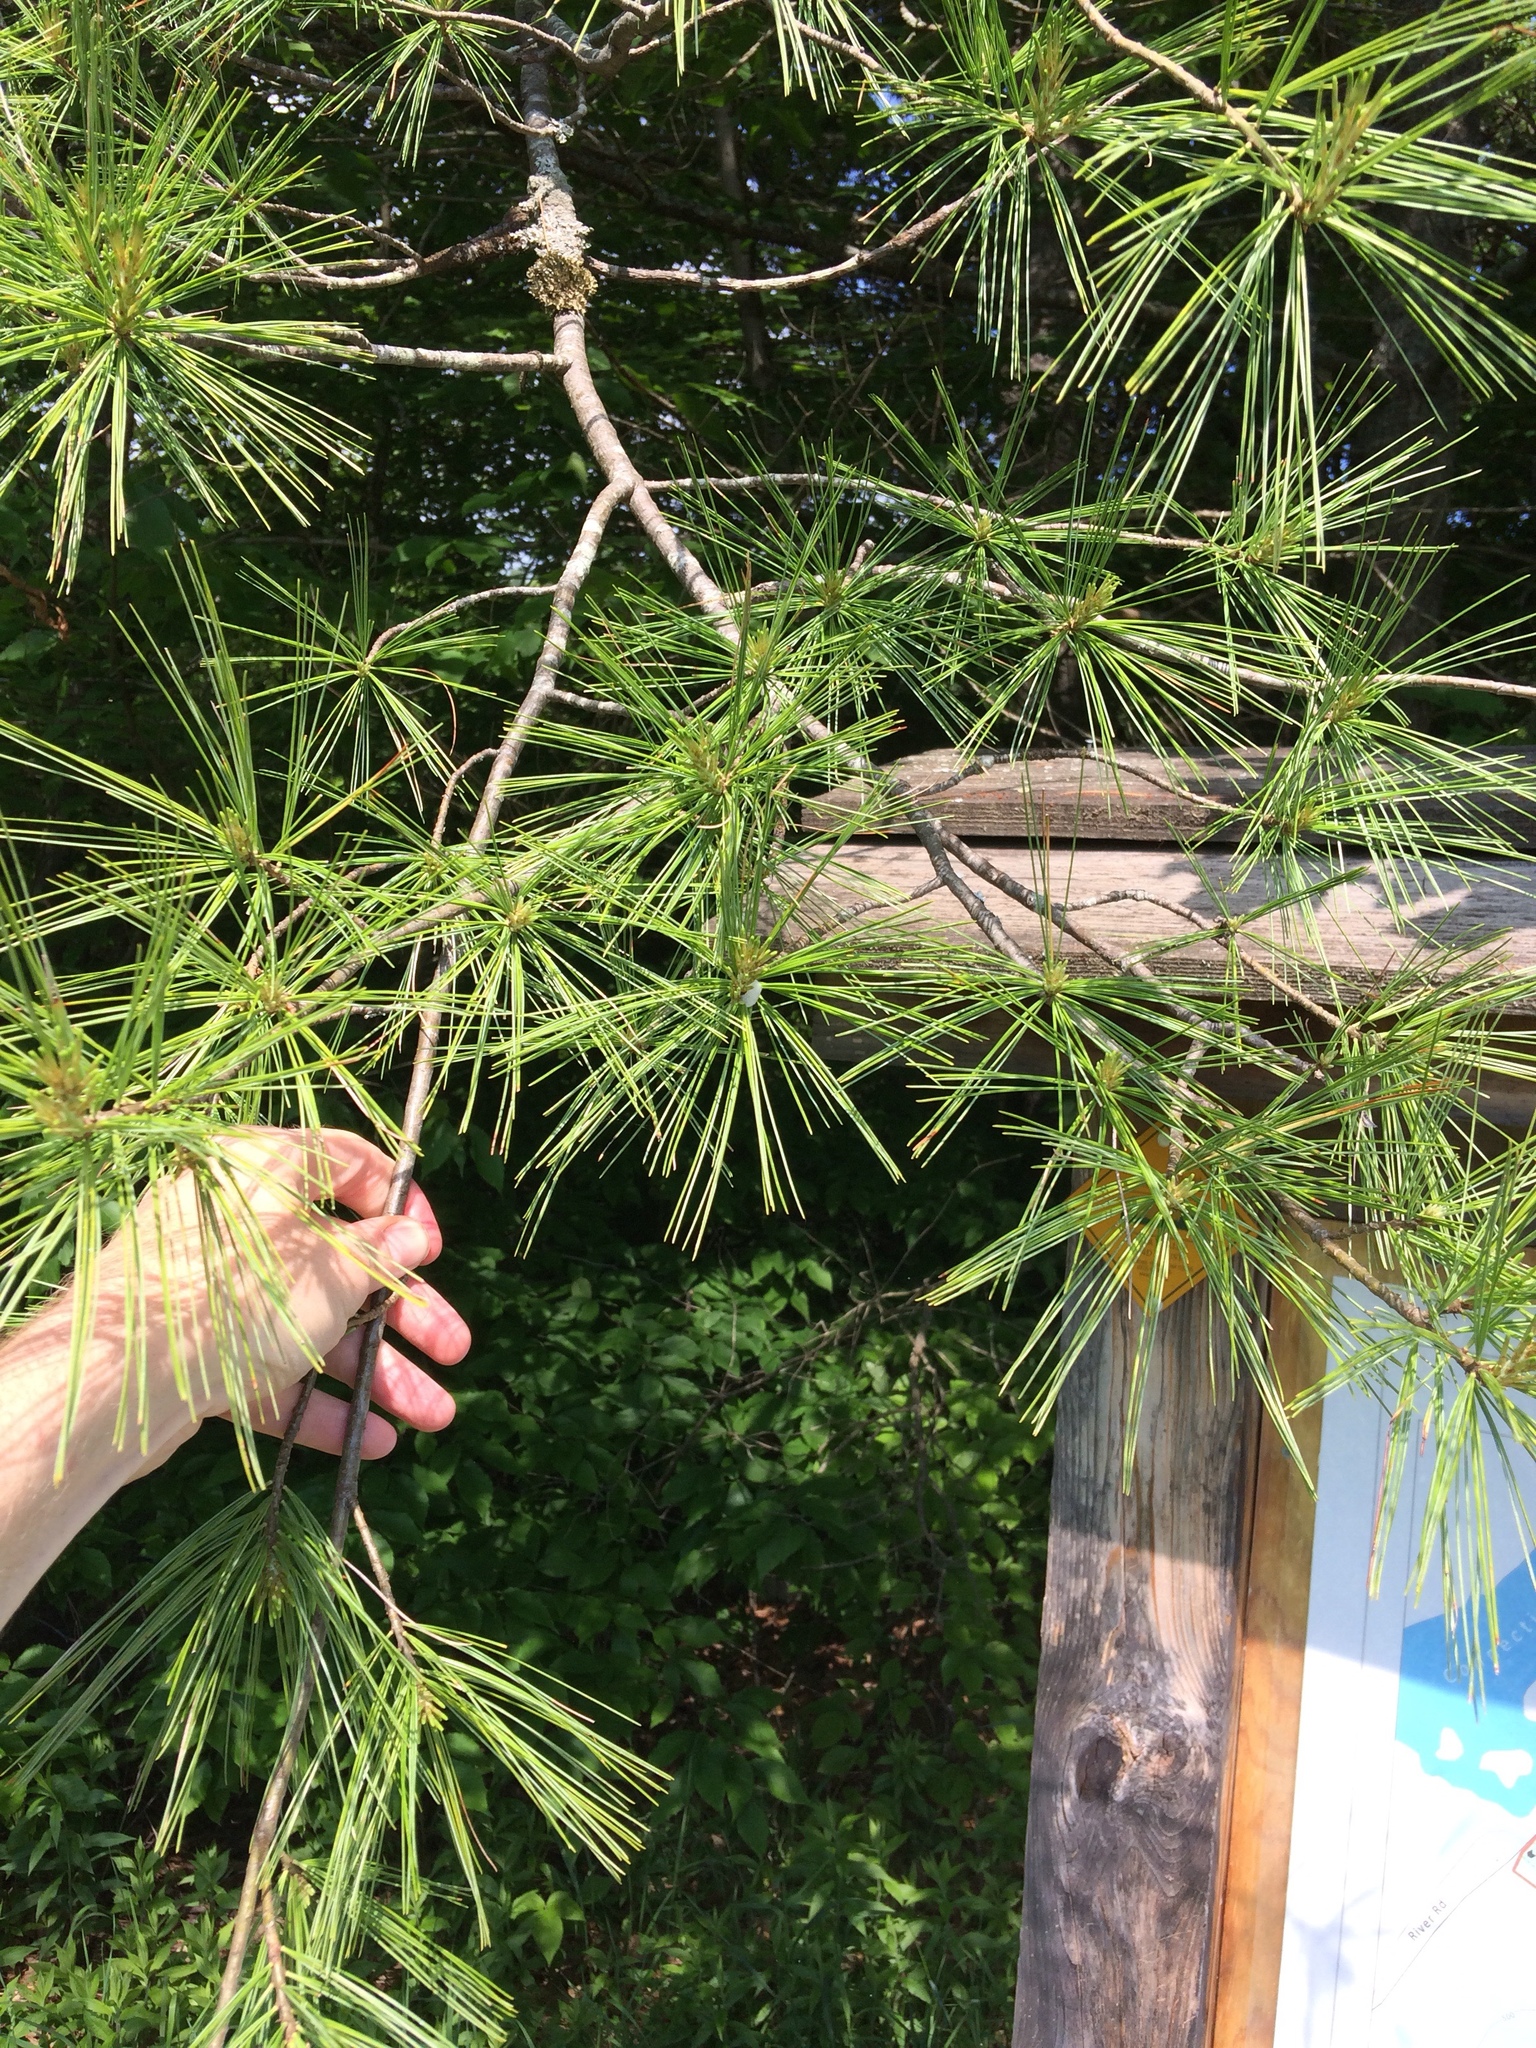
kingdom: Plantae
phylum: Tracheophyta
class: Pinopsida
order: Pinales
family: Pinaceae
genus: Pinus
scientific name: Pinus strobus
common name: Weymouth pine
